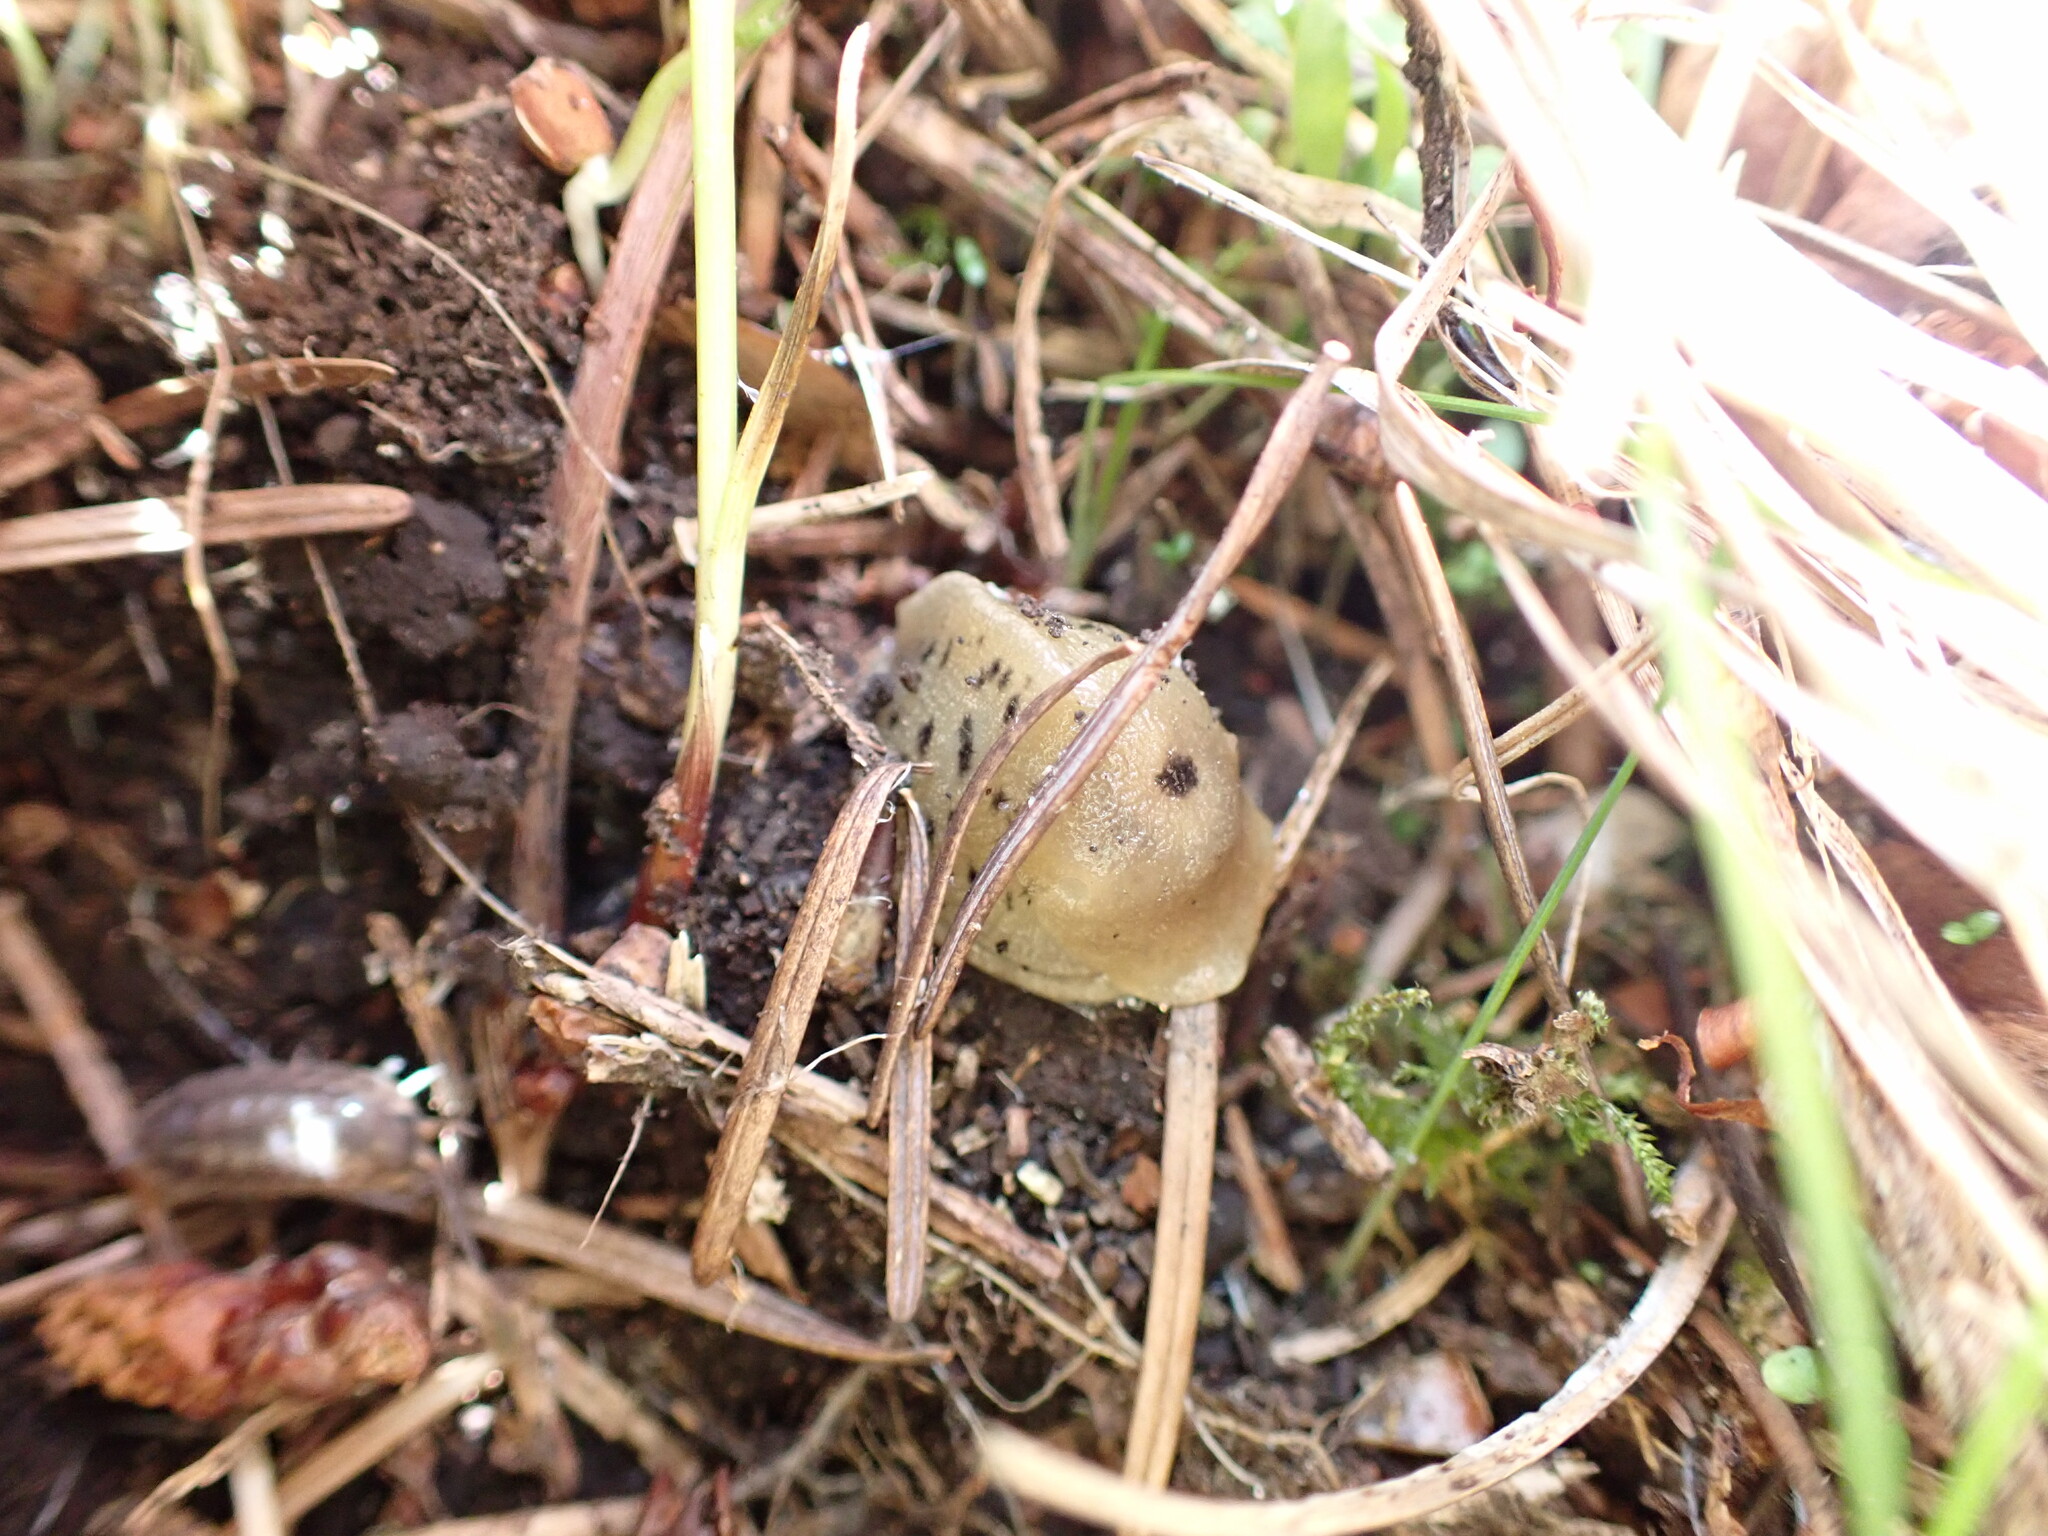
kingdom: Animalia
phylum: Mollusca
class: Gastropoda
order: Stylommatophora
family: Ariolimacidae
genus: Ariolimax
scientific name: Ariolimax columbianus
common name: Pacific banana slug
